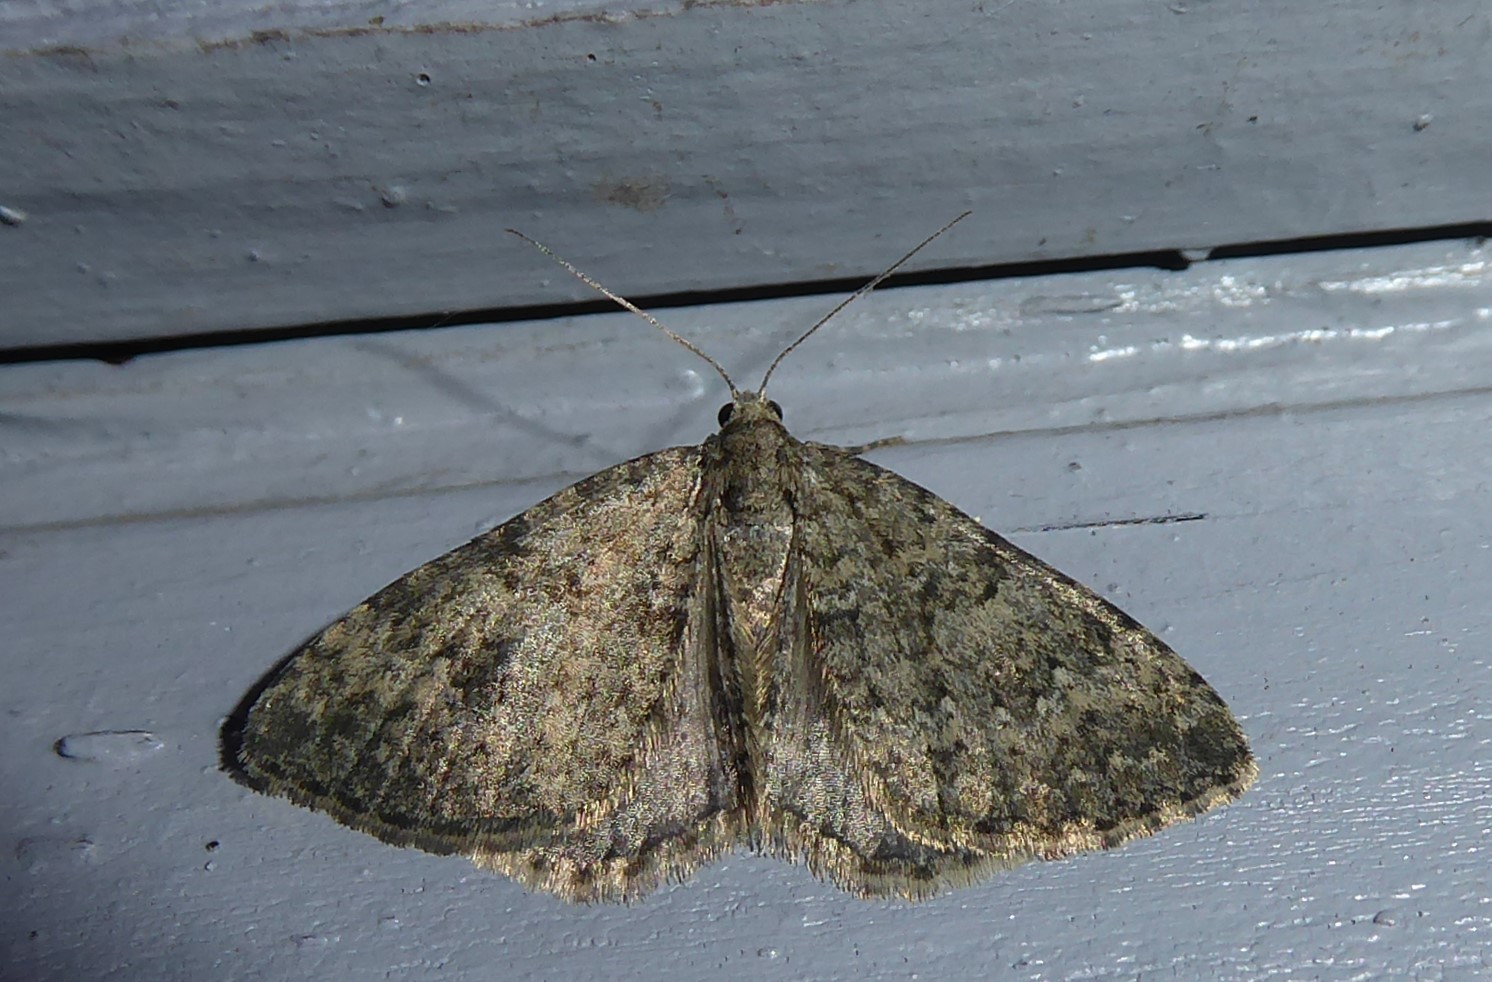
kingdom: Animalia
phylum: Arthropoda
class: Insecta
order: Lepidoptera
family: Geometridae
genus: Helastia
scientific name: Helastia corcularia
